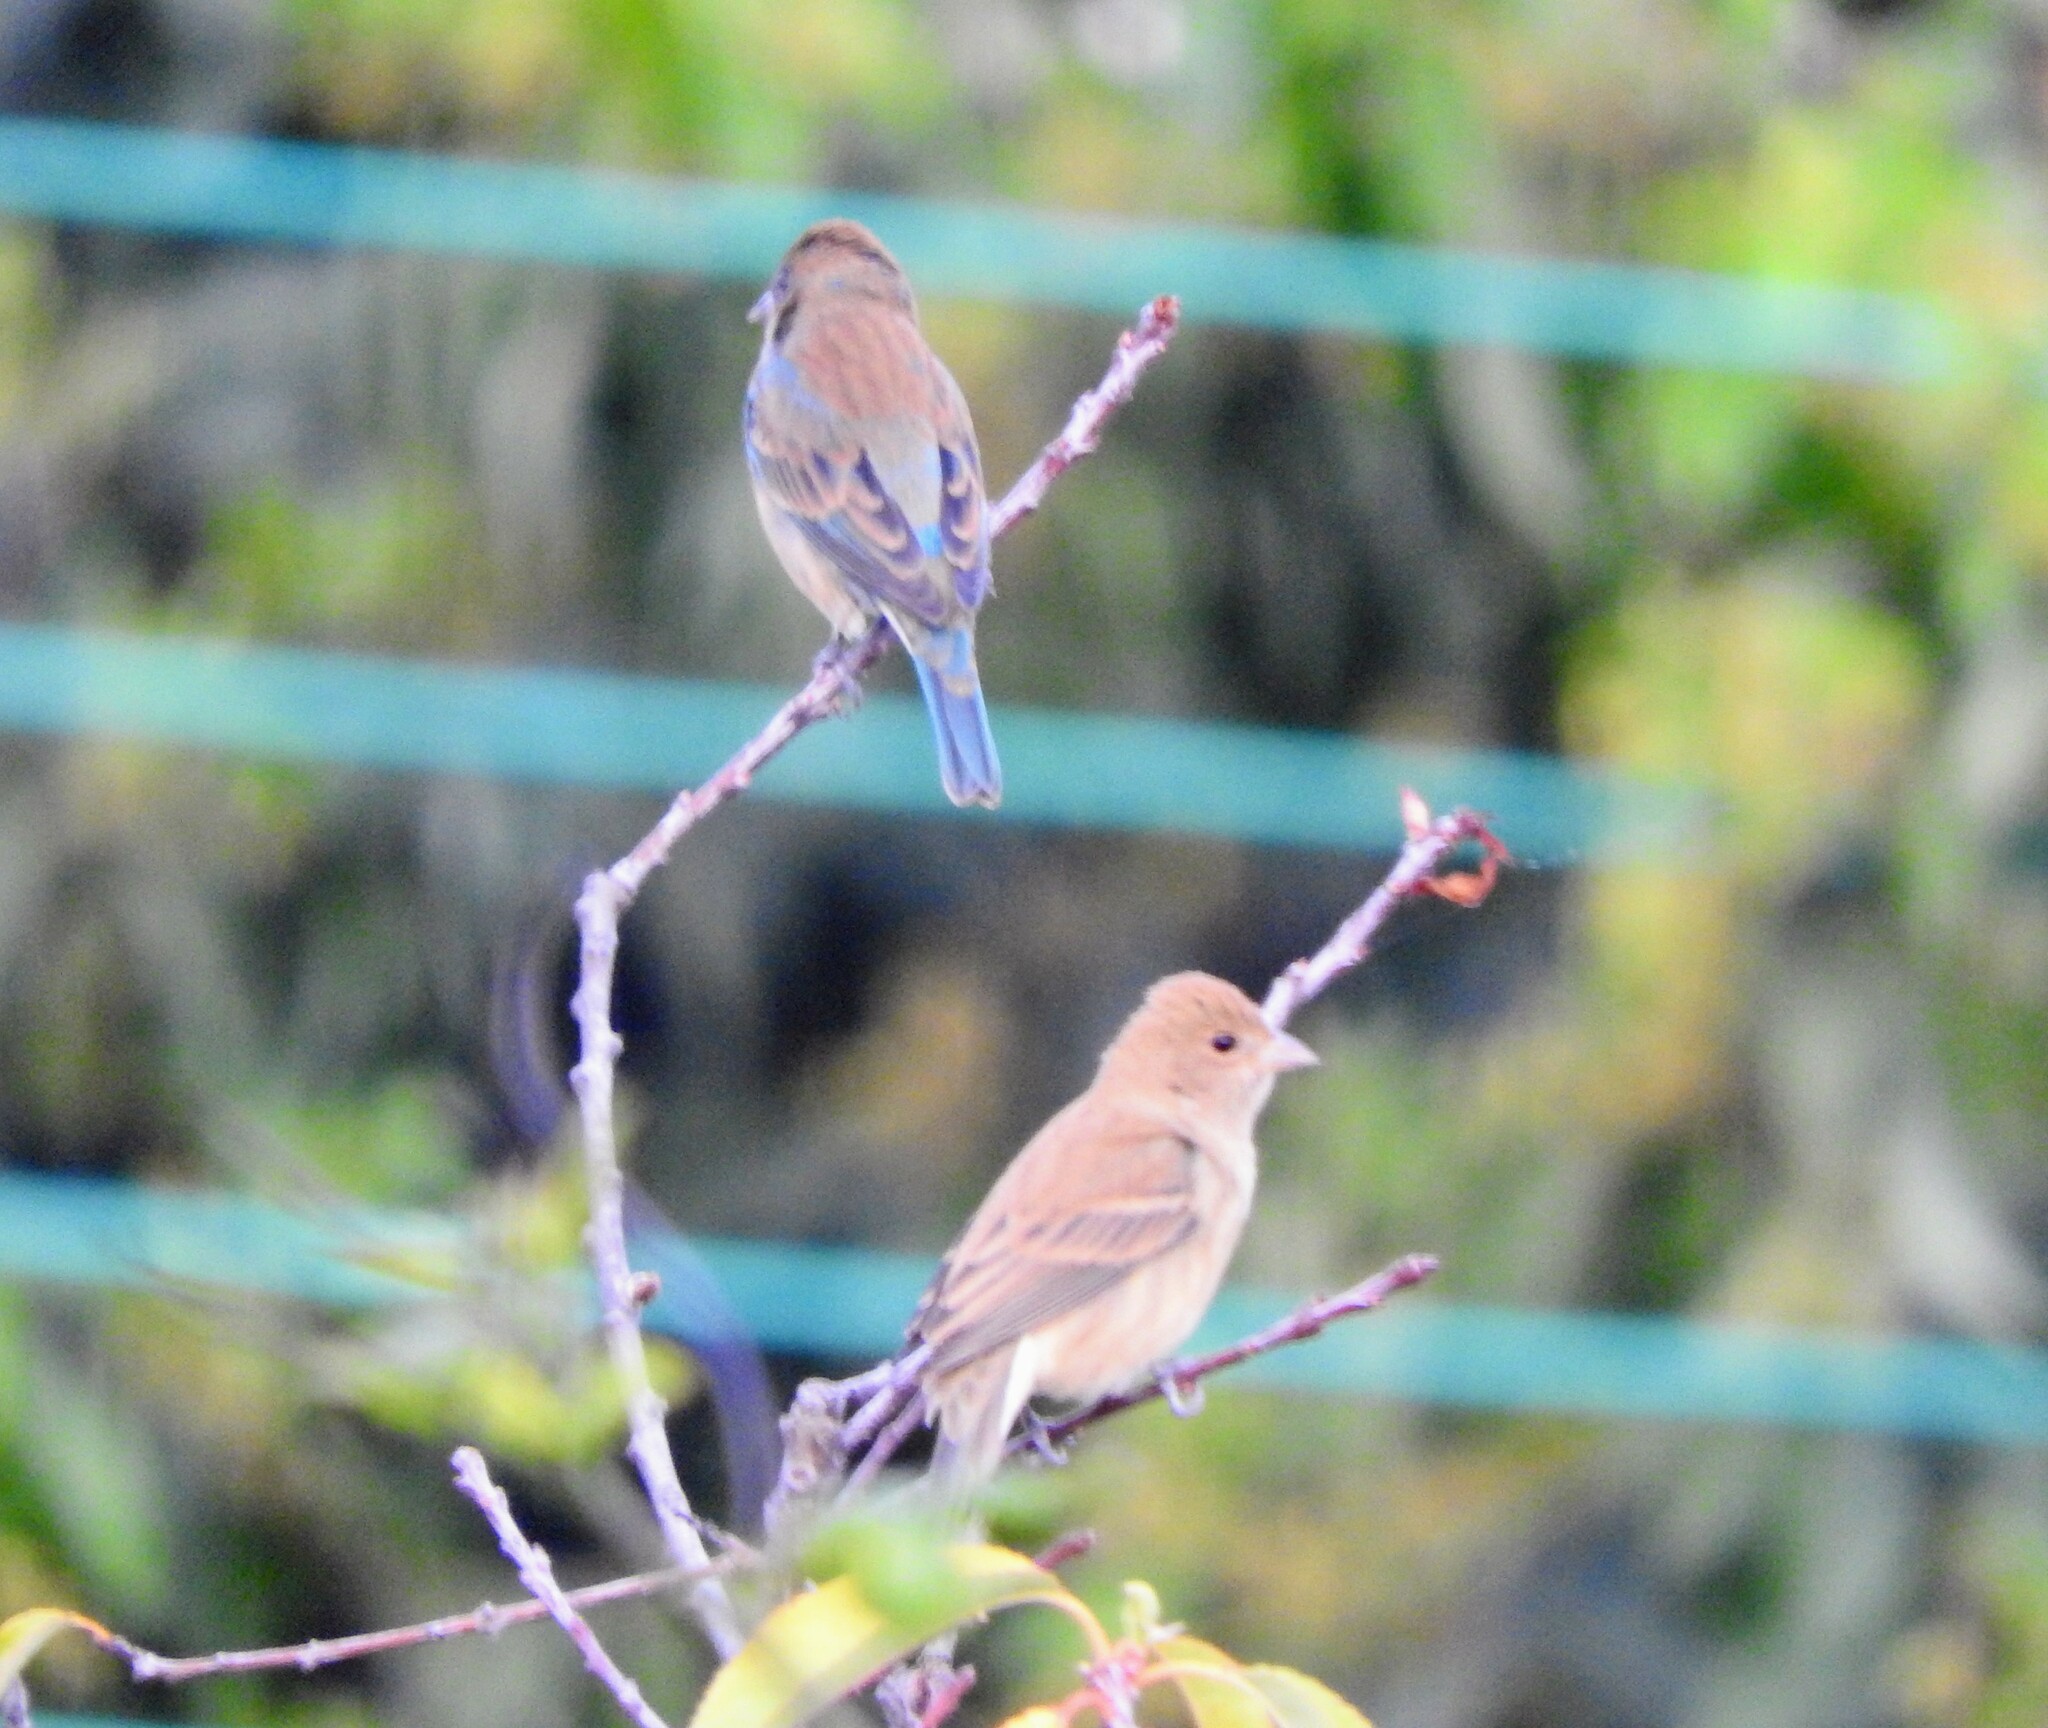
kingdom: Animalia
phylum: Chordata
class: Aves
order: Passeriformes
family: Cardinalidae
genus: Passerina
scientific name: Passerina cyanea
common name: Indigo bunting
